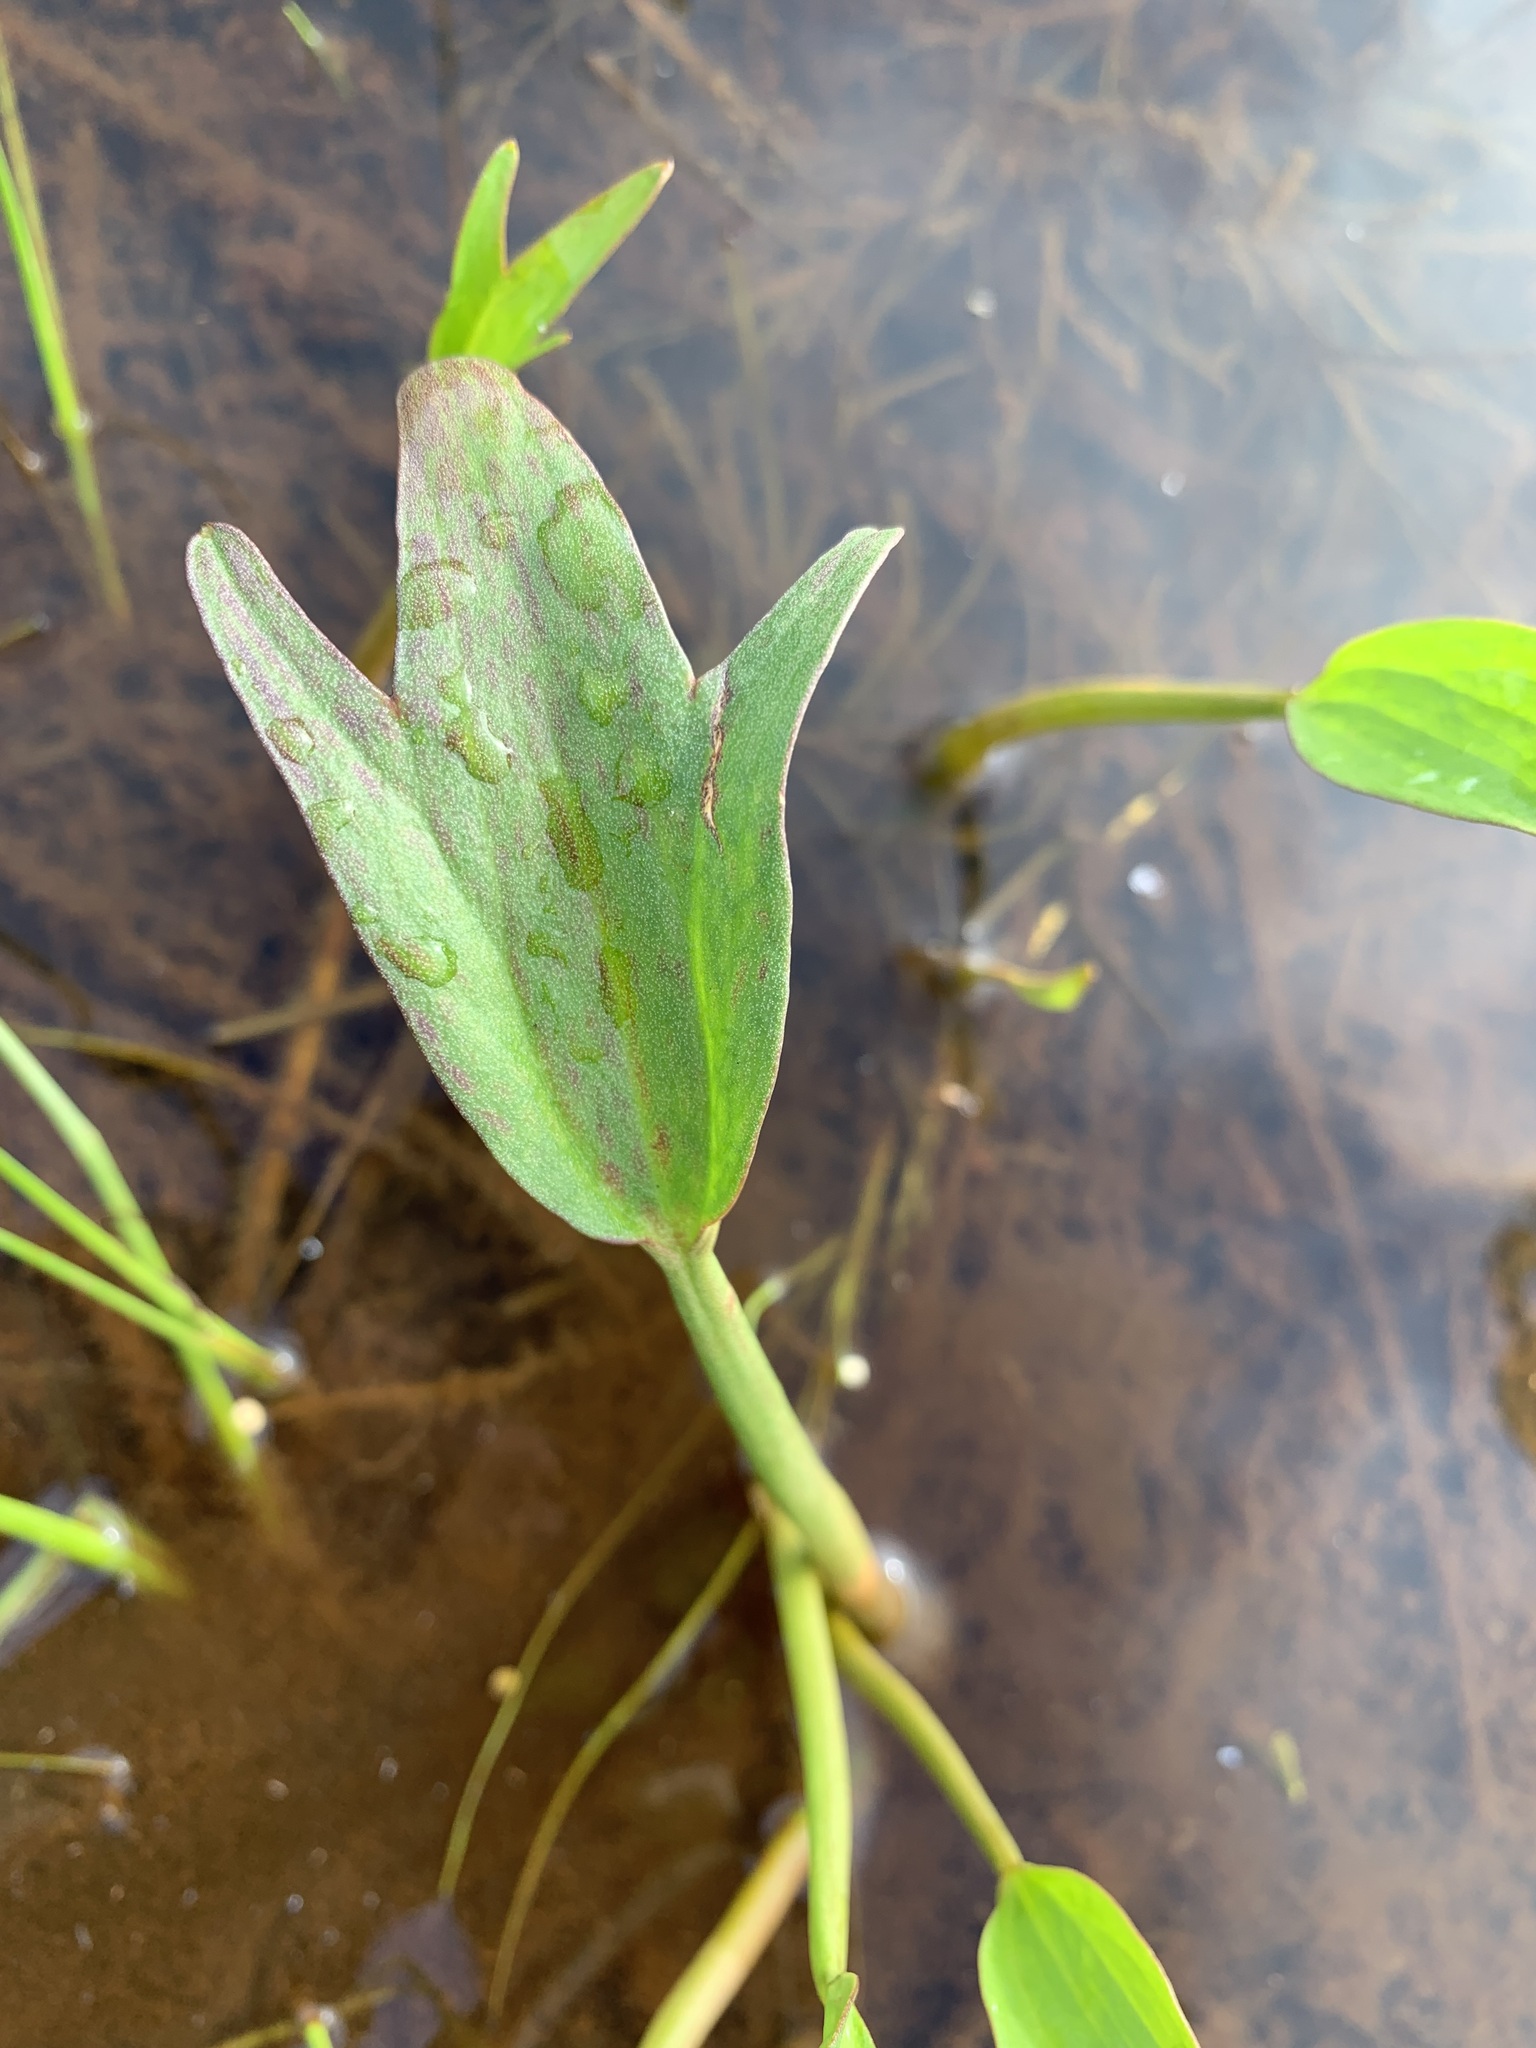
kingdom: Plantae
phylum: Tracheophyta
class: Magnoliopsida
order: Ranunculales
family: Ranunculaceae
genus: Coptidium
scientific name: Coptidium pallasii
